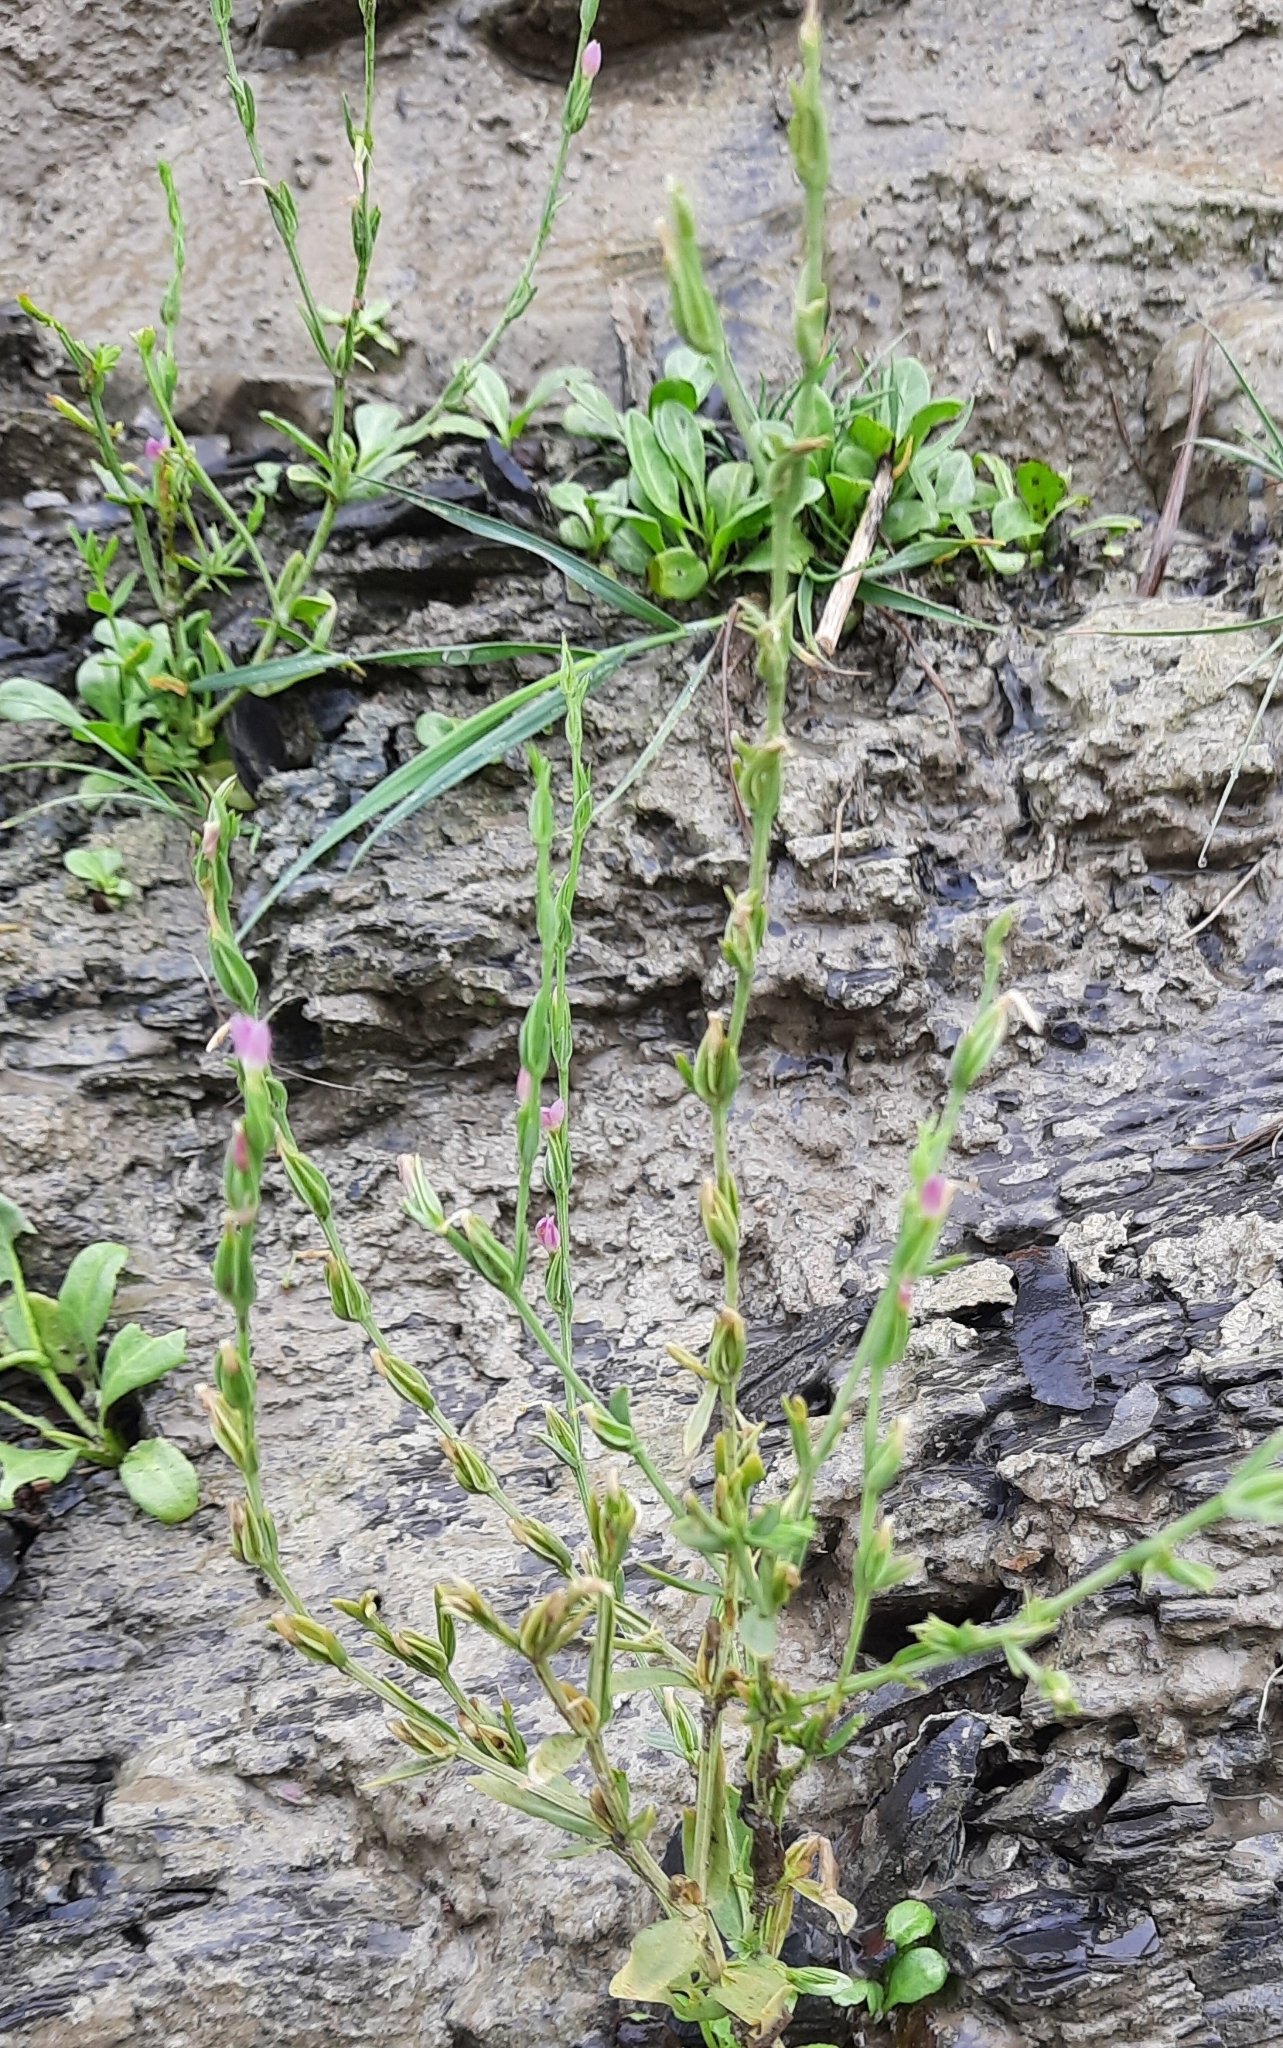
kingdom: Plantae
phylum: Tracheophyta
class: Magnoliopsida
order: Gentianales
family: Gentianaceae
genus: Schenkia
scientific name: Schenkia spicata
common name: Spiked centaury
